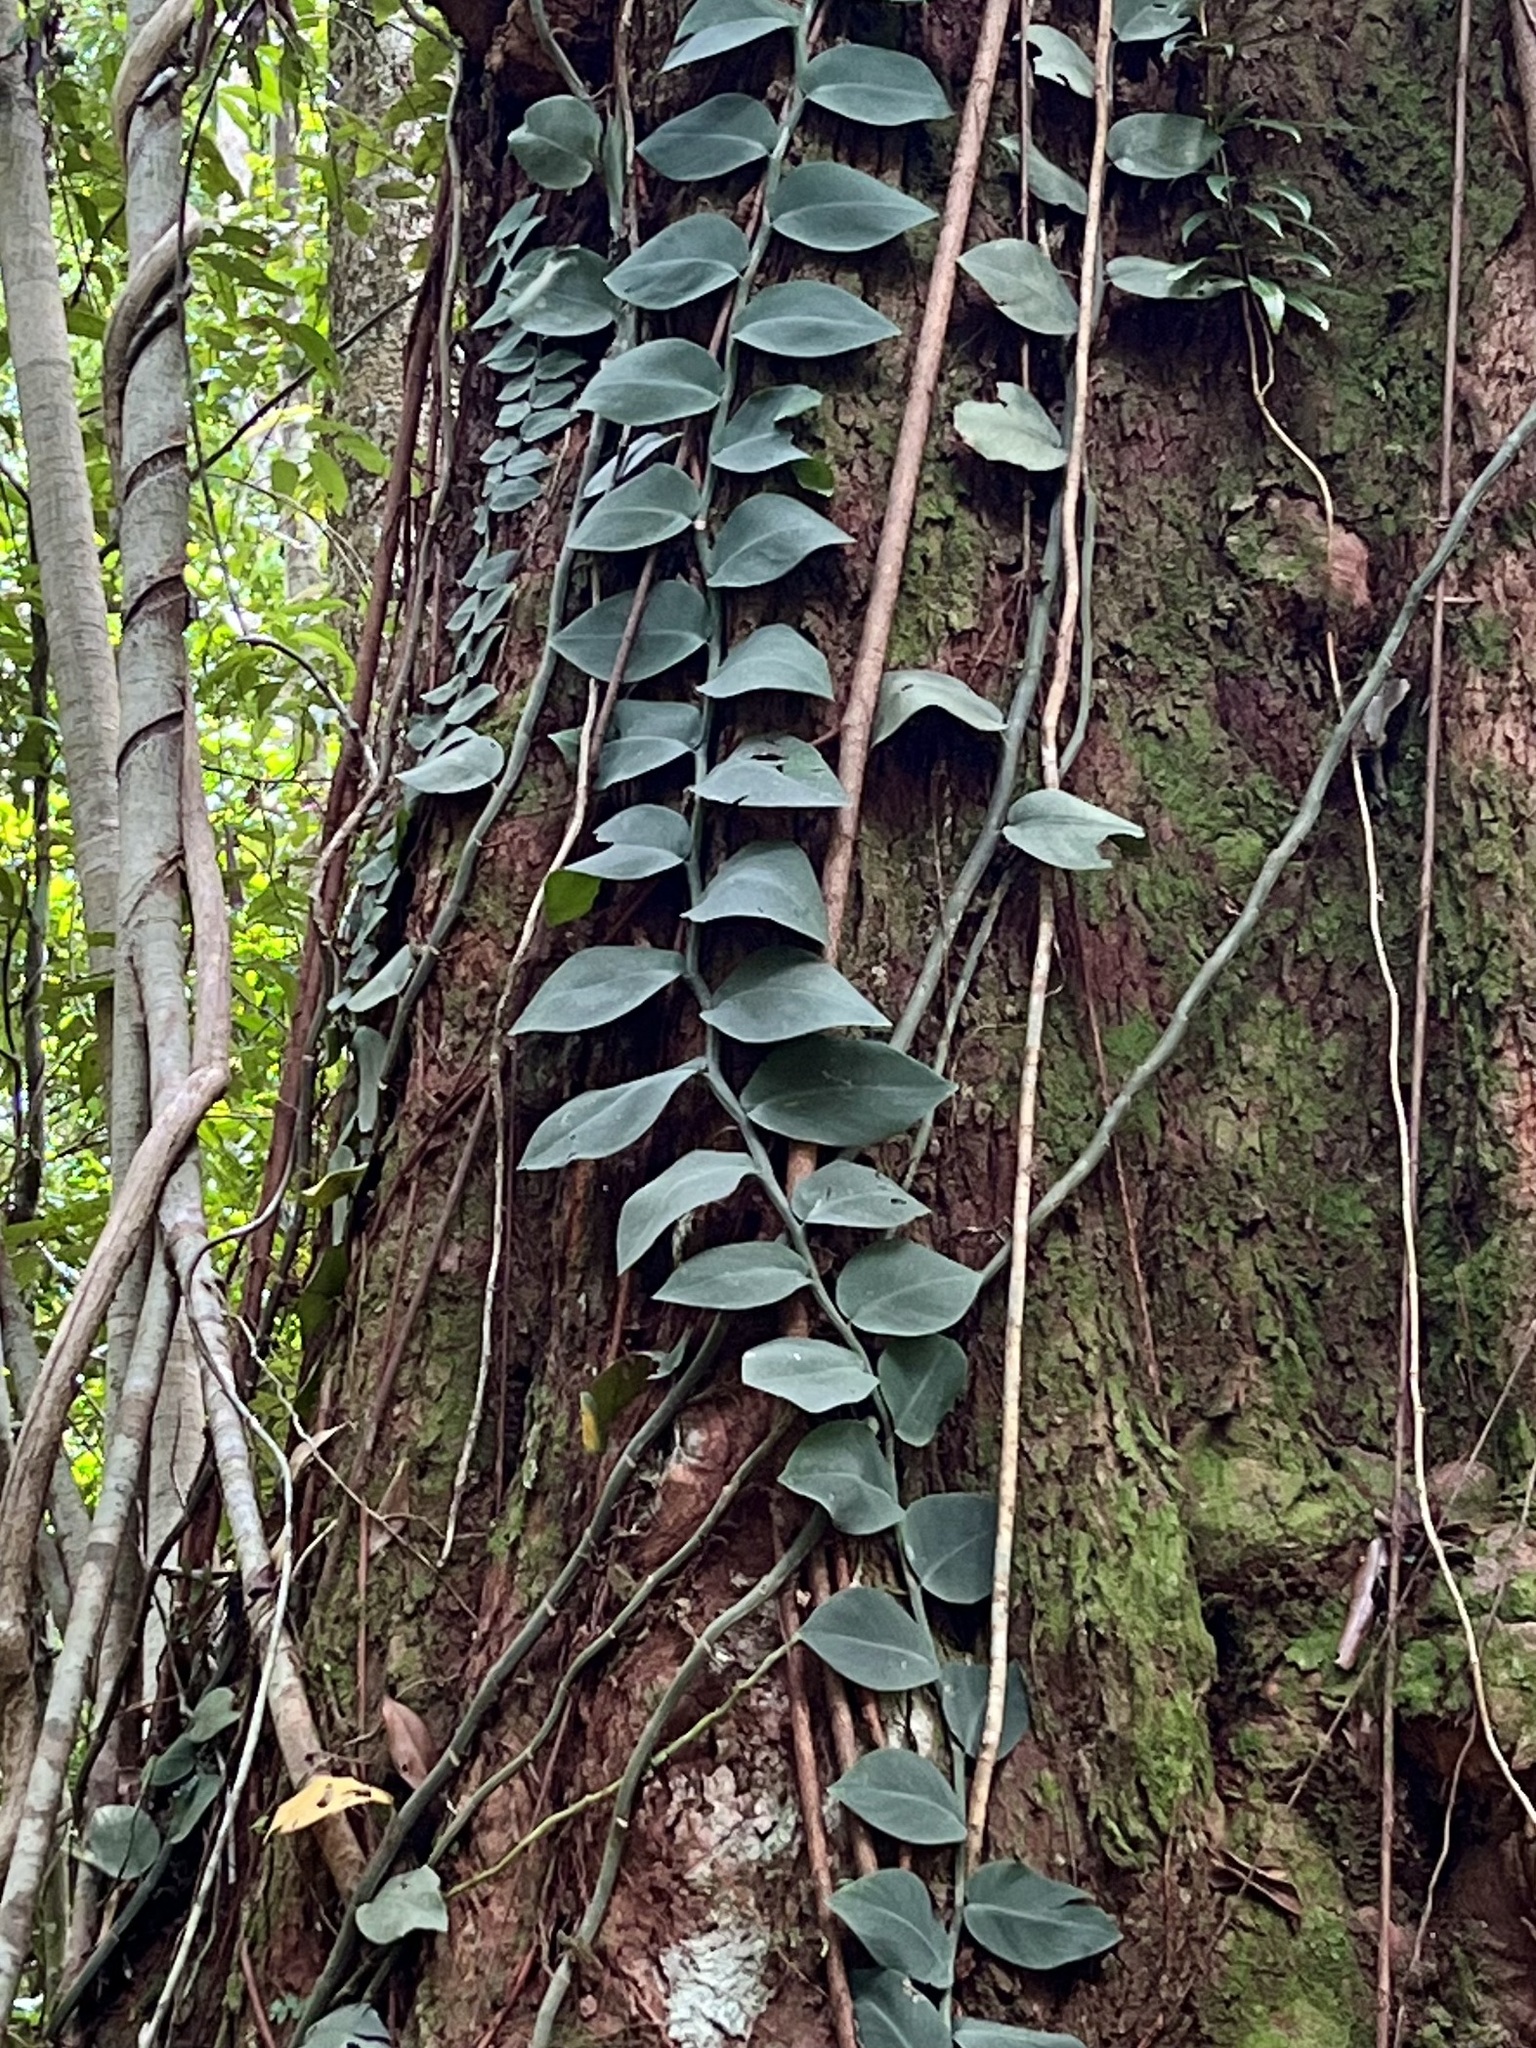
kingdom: Plantae
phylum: Tracheophyta
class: Liliopsida
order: Alismatales
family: Araceae
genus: Rhaphidophora
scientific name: Rhaphidophora hayi
